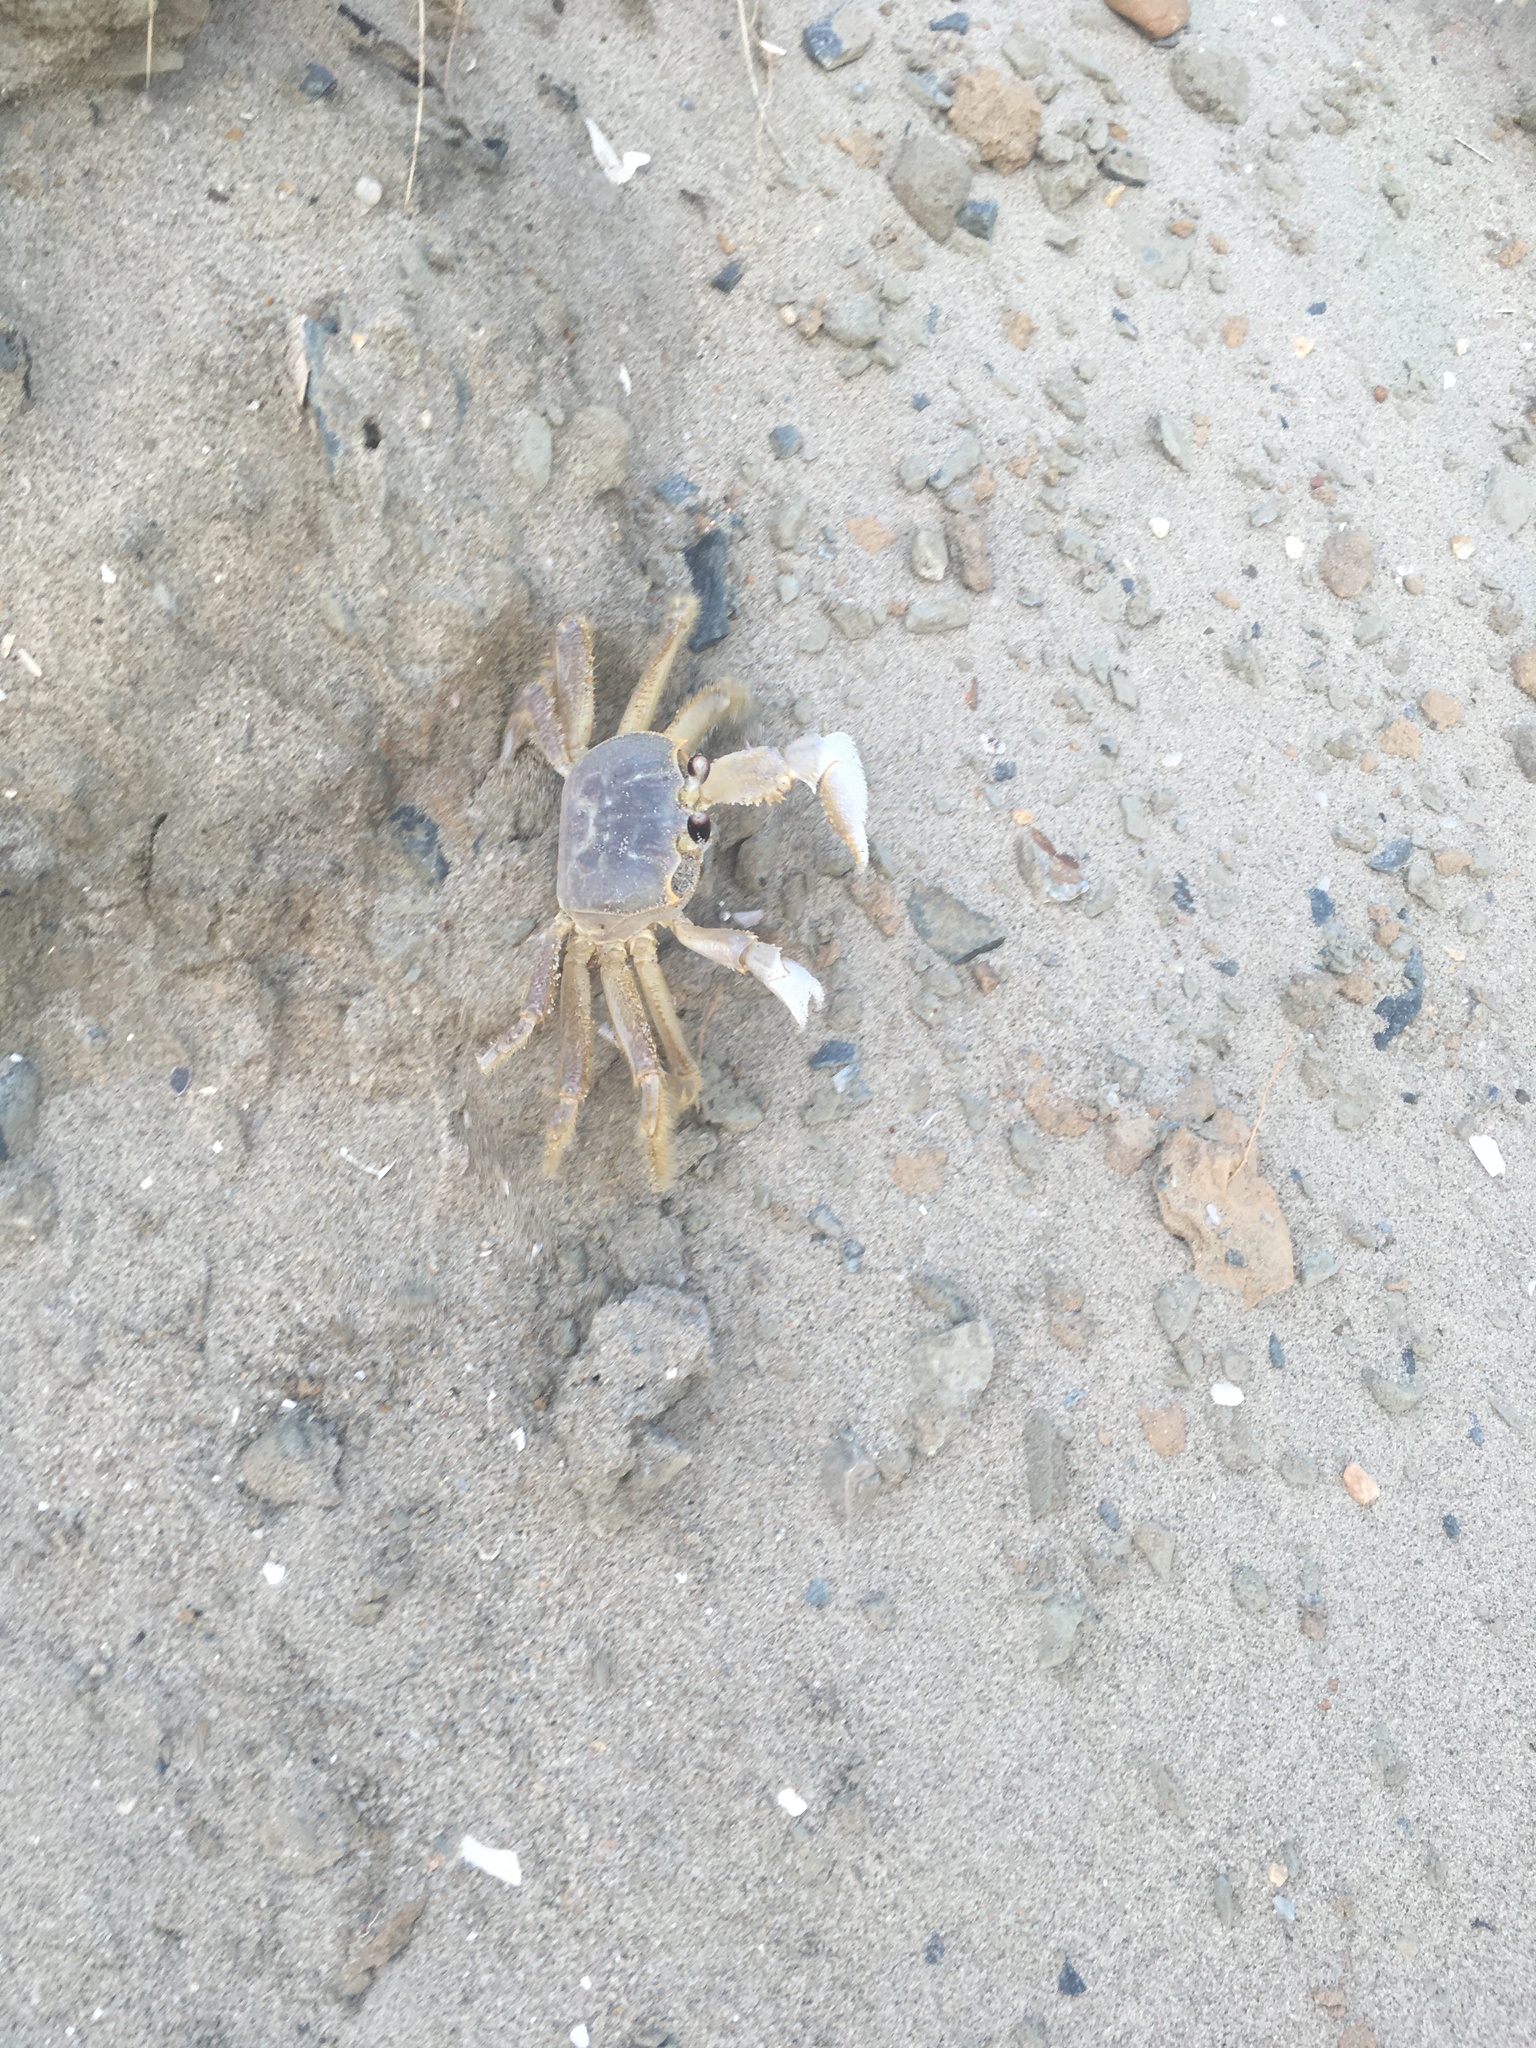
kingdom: Animalia
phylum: Arthropoda
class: Malacostraca
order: Decapoda
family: Ocypodidae
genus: Ocypode
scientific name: Ocypode quadrata
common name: Ghost crab
